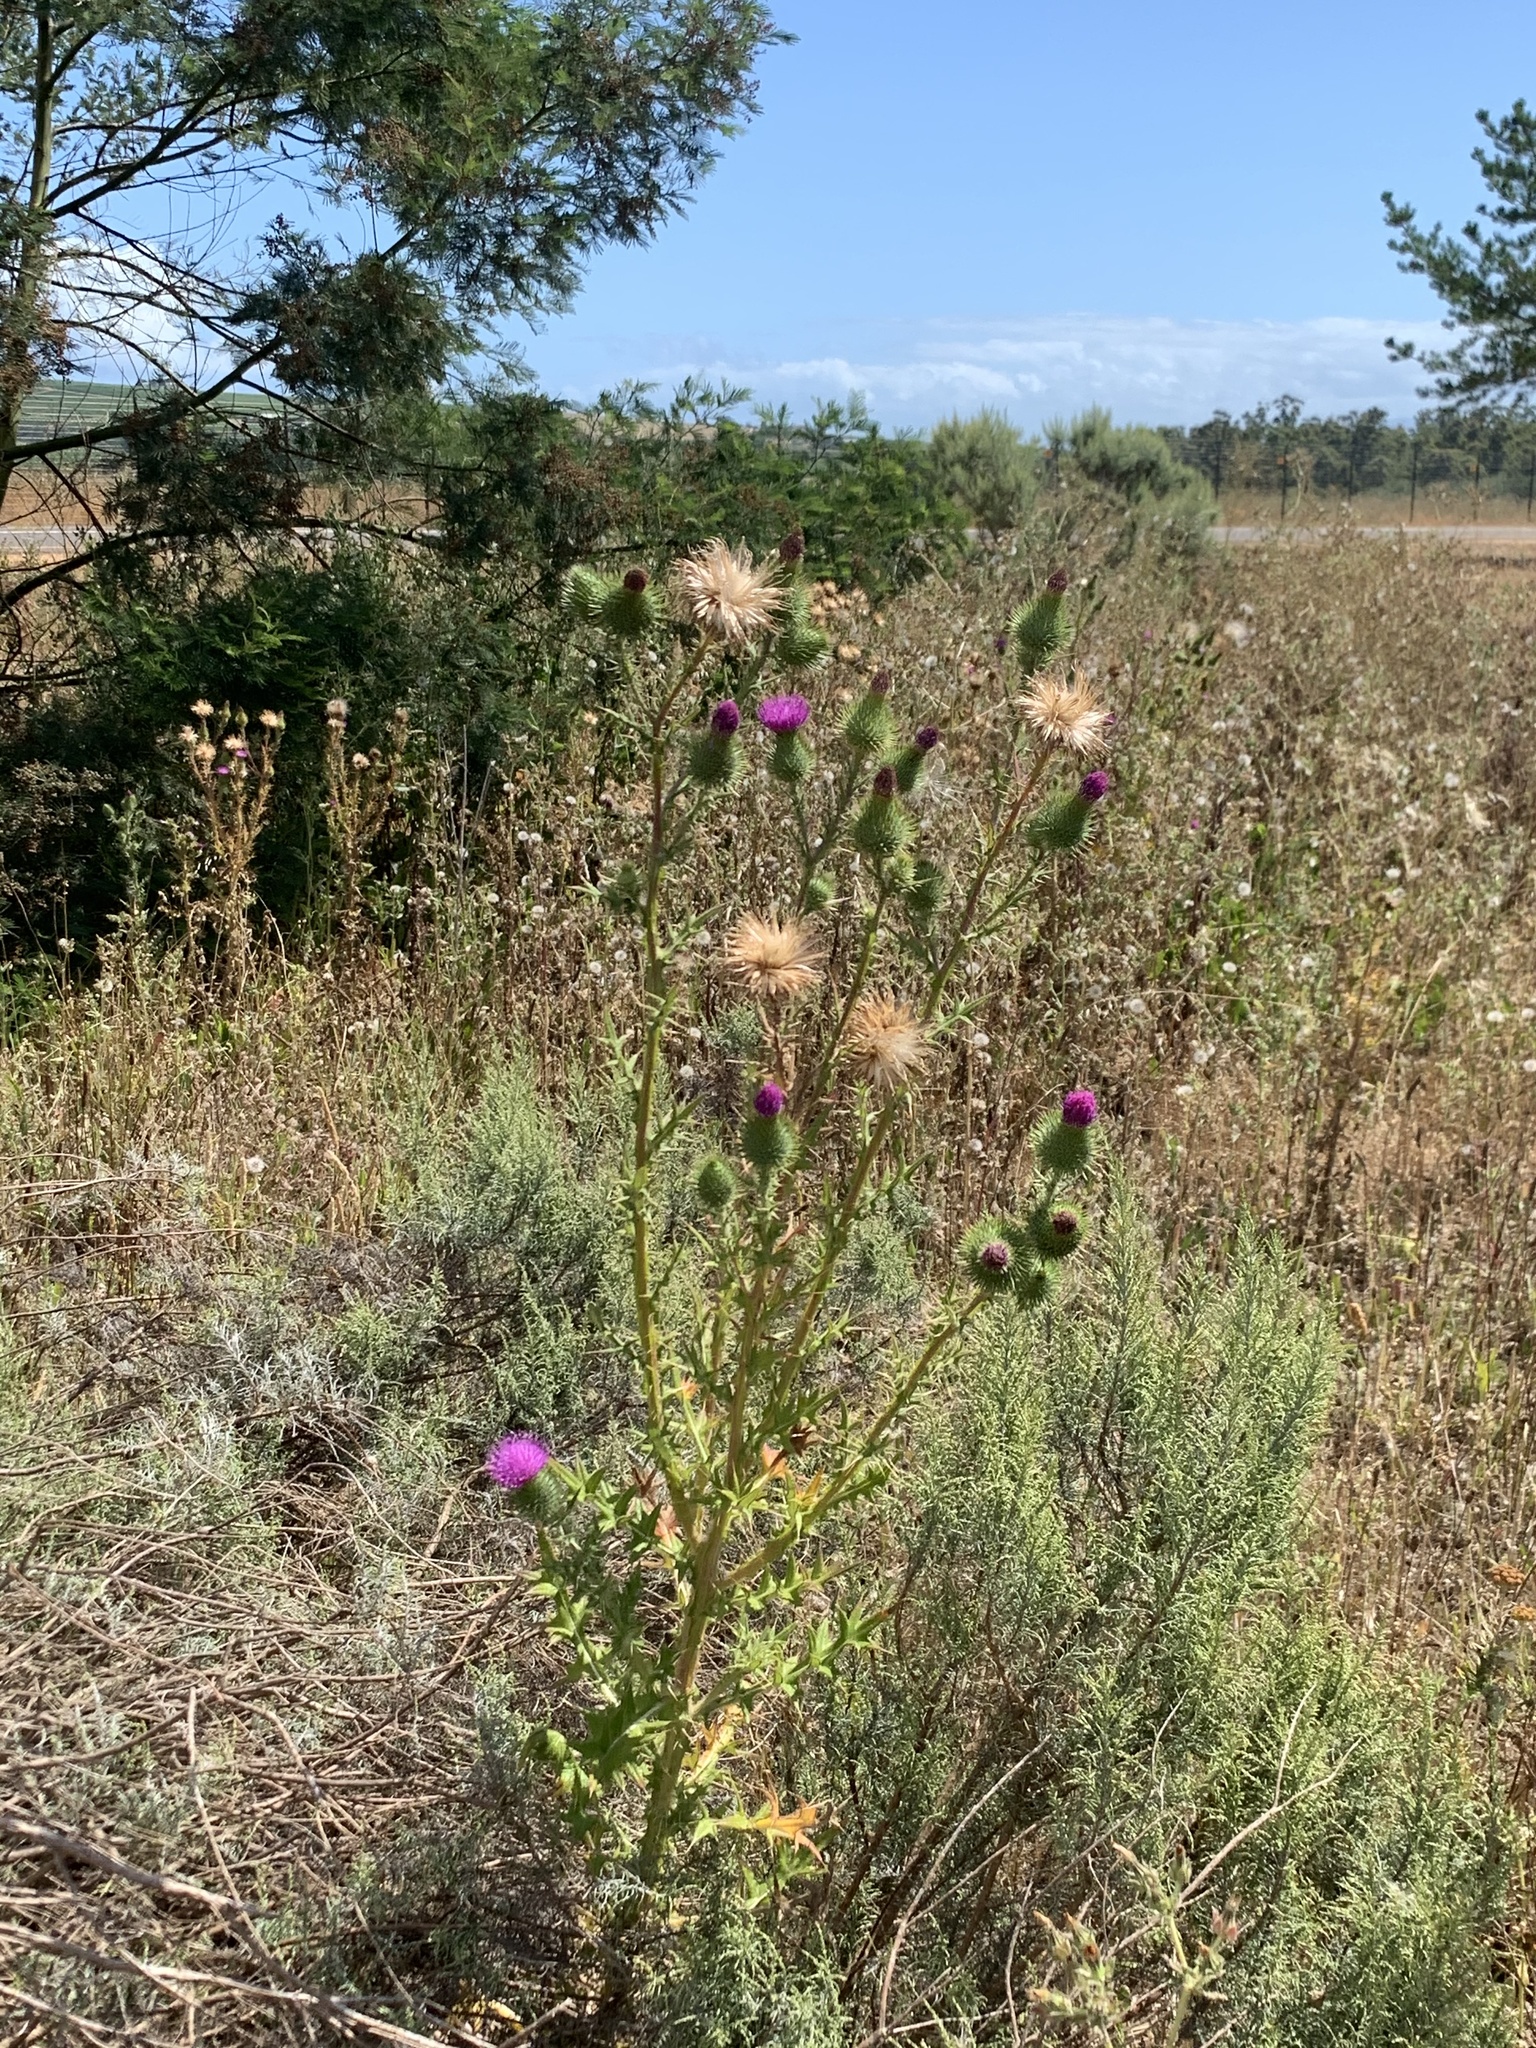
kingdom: Plantae
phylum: Tracheophyta
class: Magnoliopsida
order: Asterales
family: Asteraceae
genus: Cirsium
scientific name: Cirsium vulgare
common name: Bull thistle
